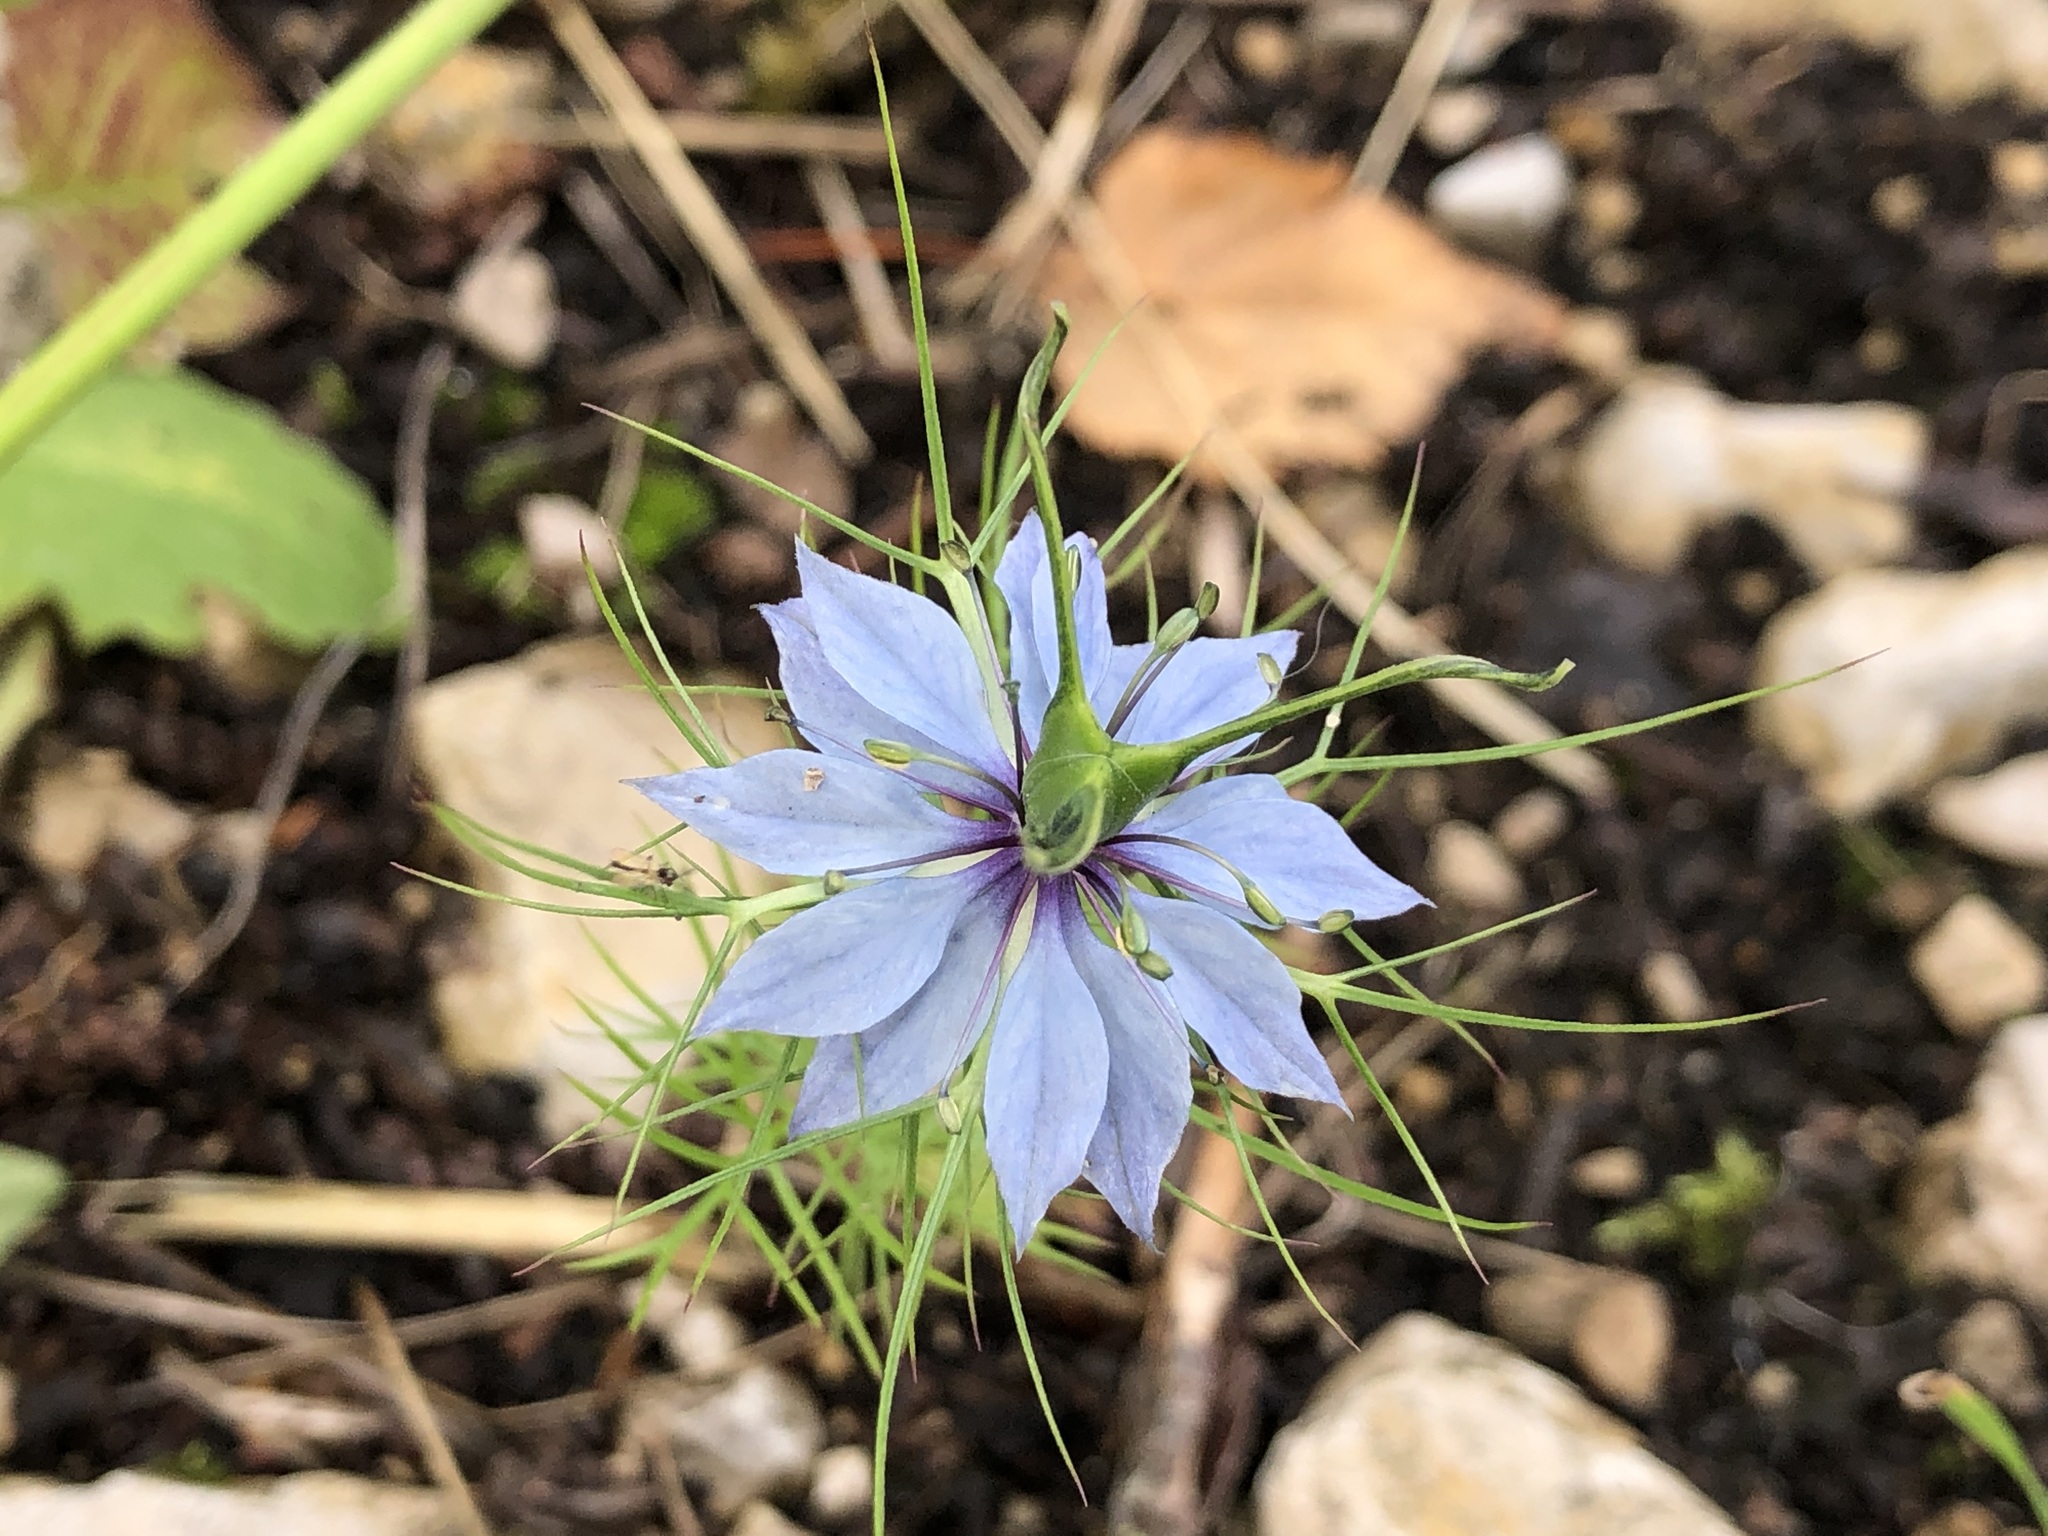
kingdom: Plantae
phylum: Tracheophyta
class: Magnoliopsida
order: Ranunculales
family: Ranunculaceae
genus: Nigella
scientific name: Nigella damascena
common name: Love-in-a-mist
